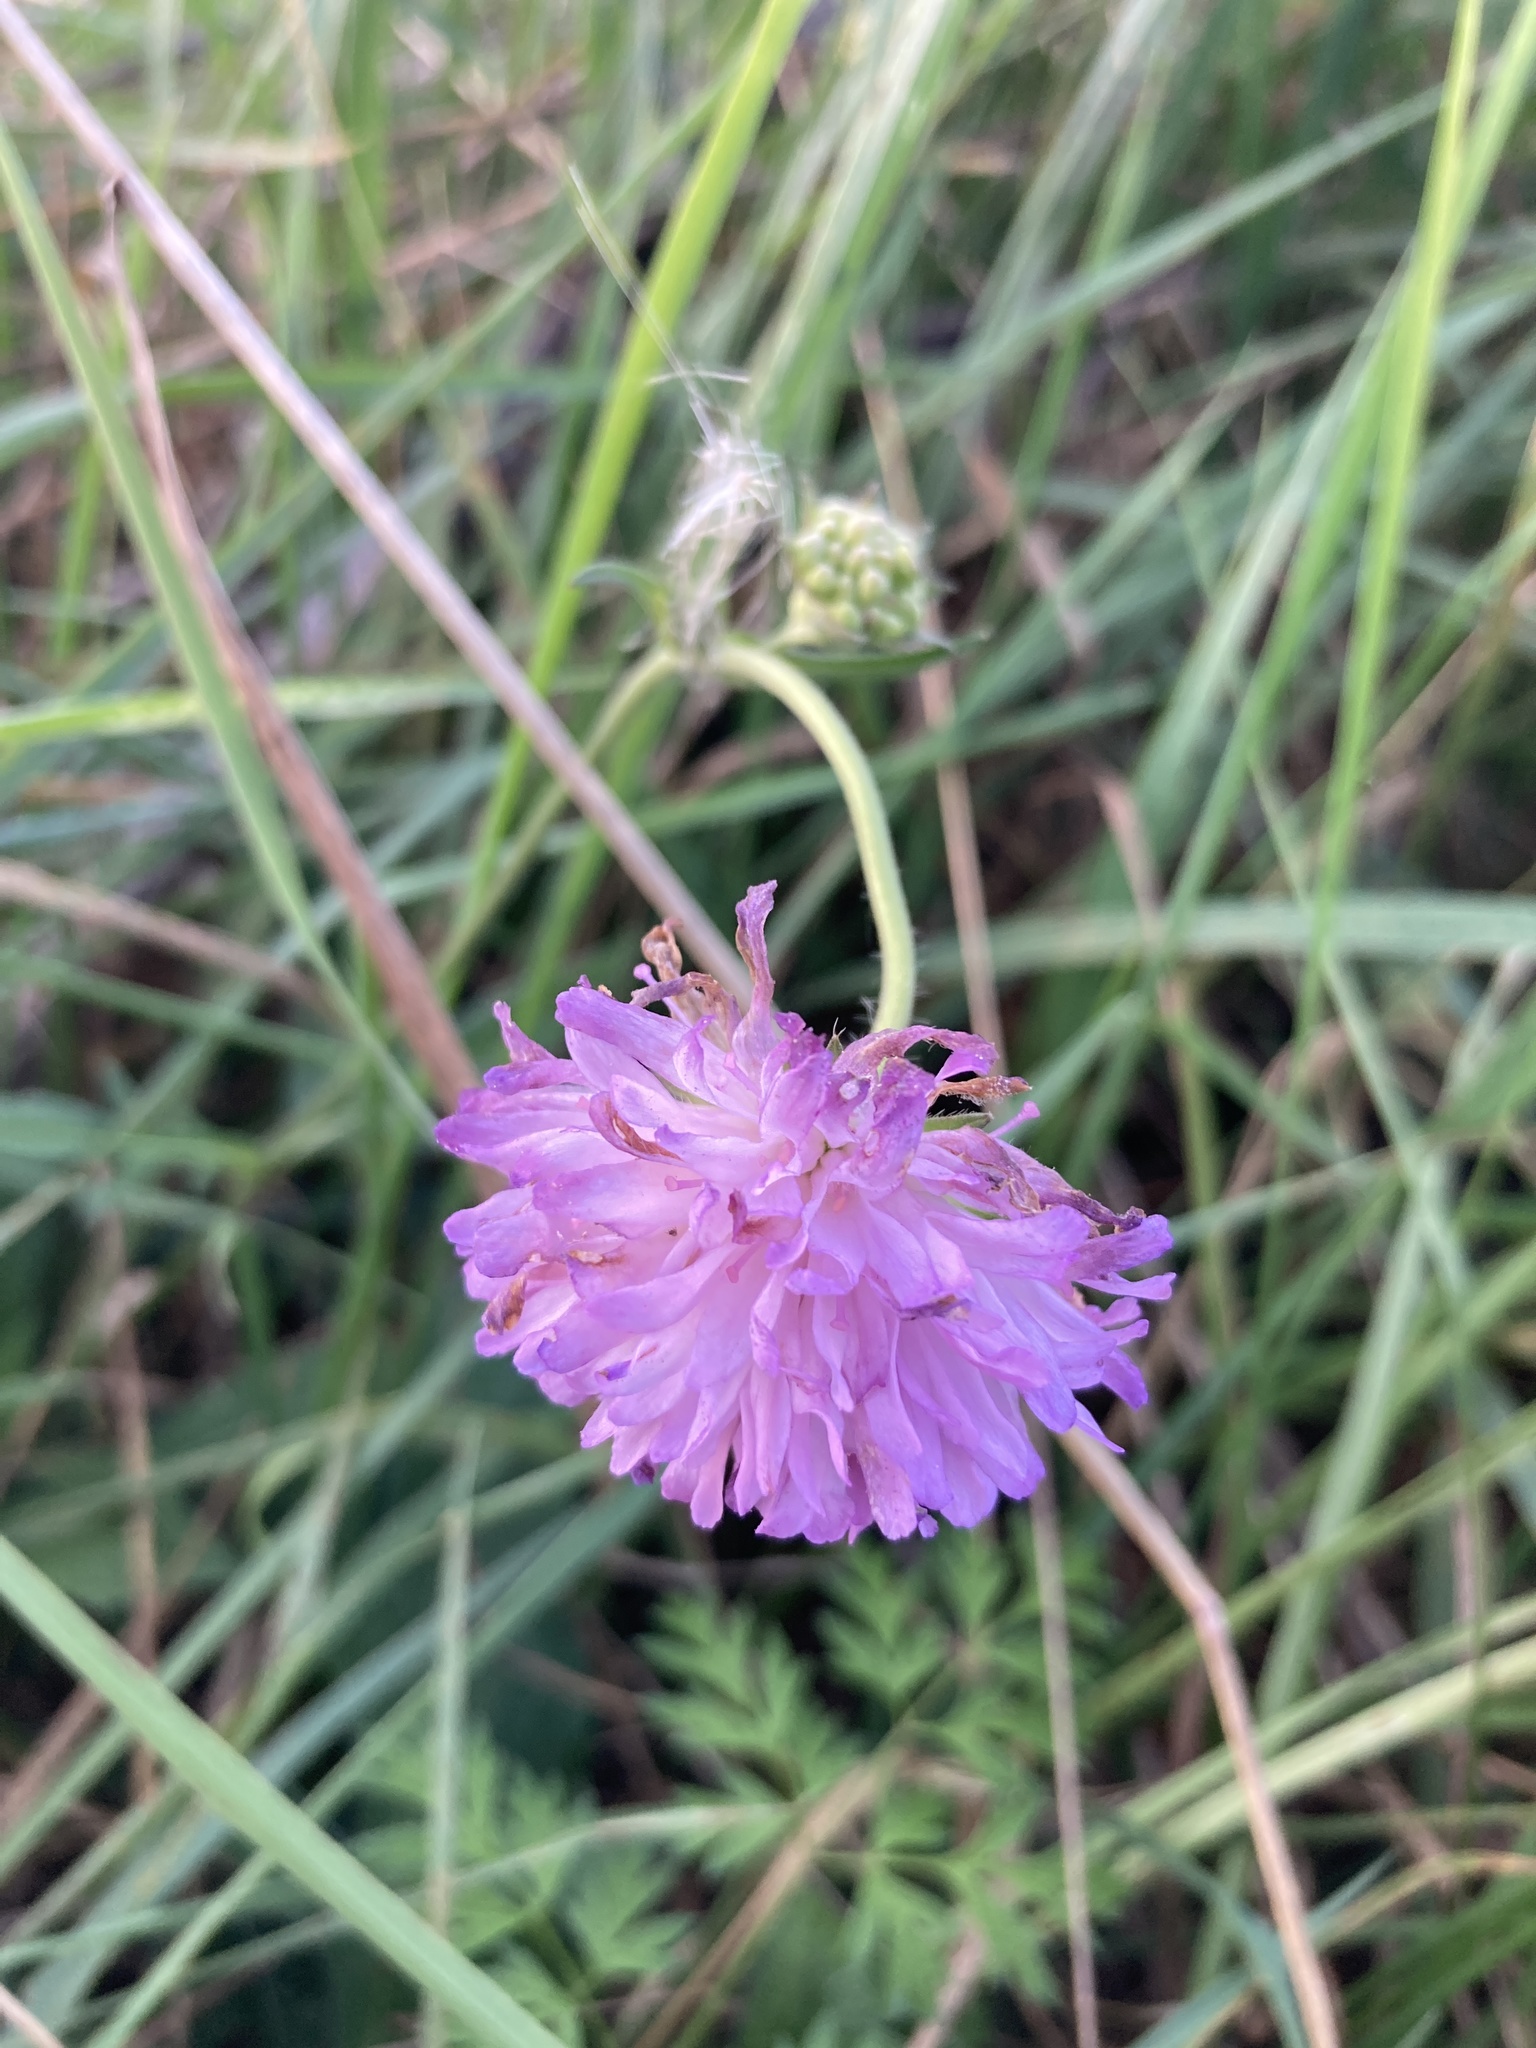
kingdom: Plantae
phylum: Tracheophyta
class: Magnoliopsida
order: Dipsacales
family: Caprifoliaceae
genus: Knautia
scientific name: Knautia arvensis
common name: Field scabiosa
